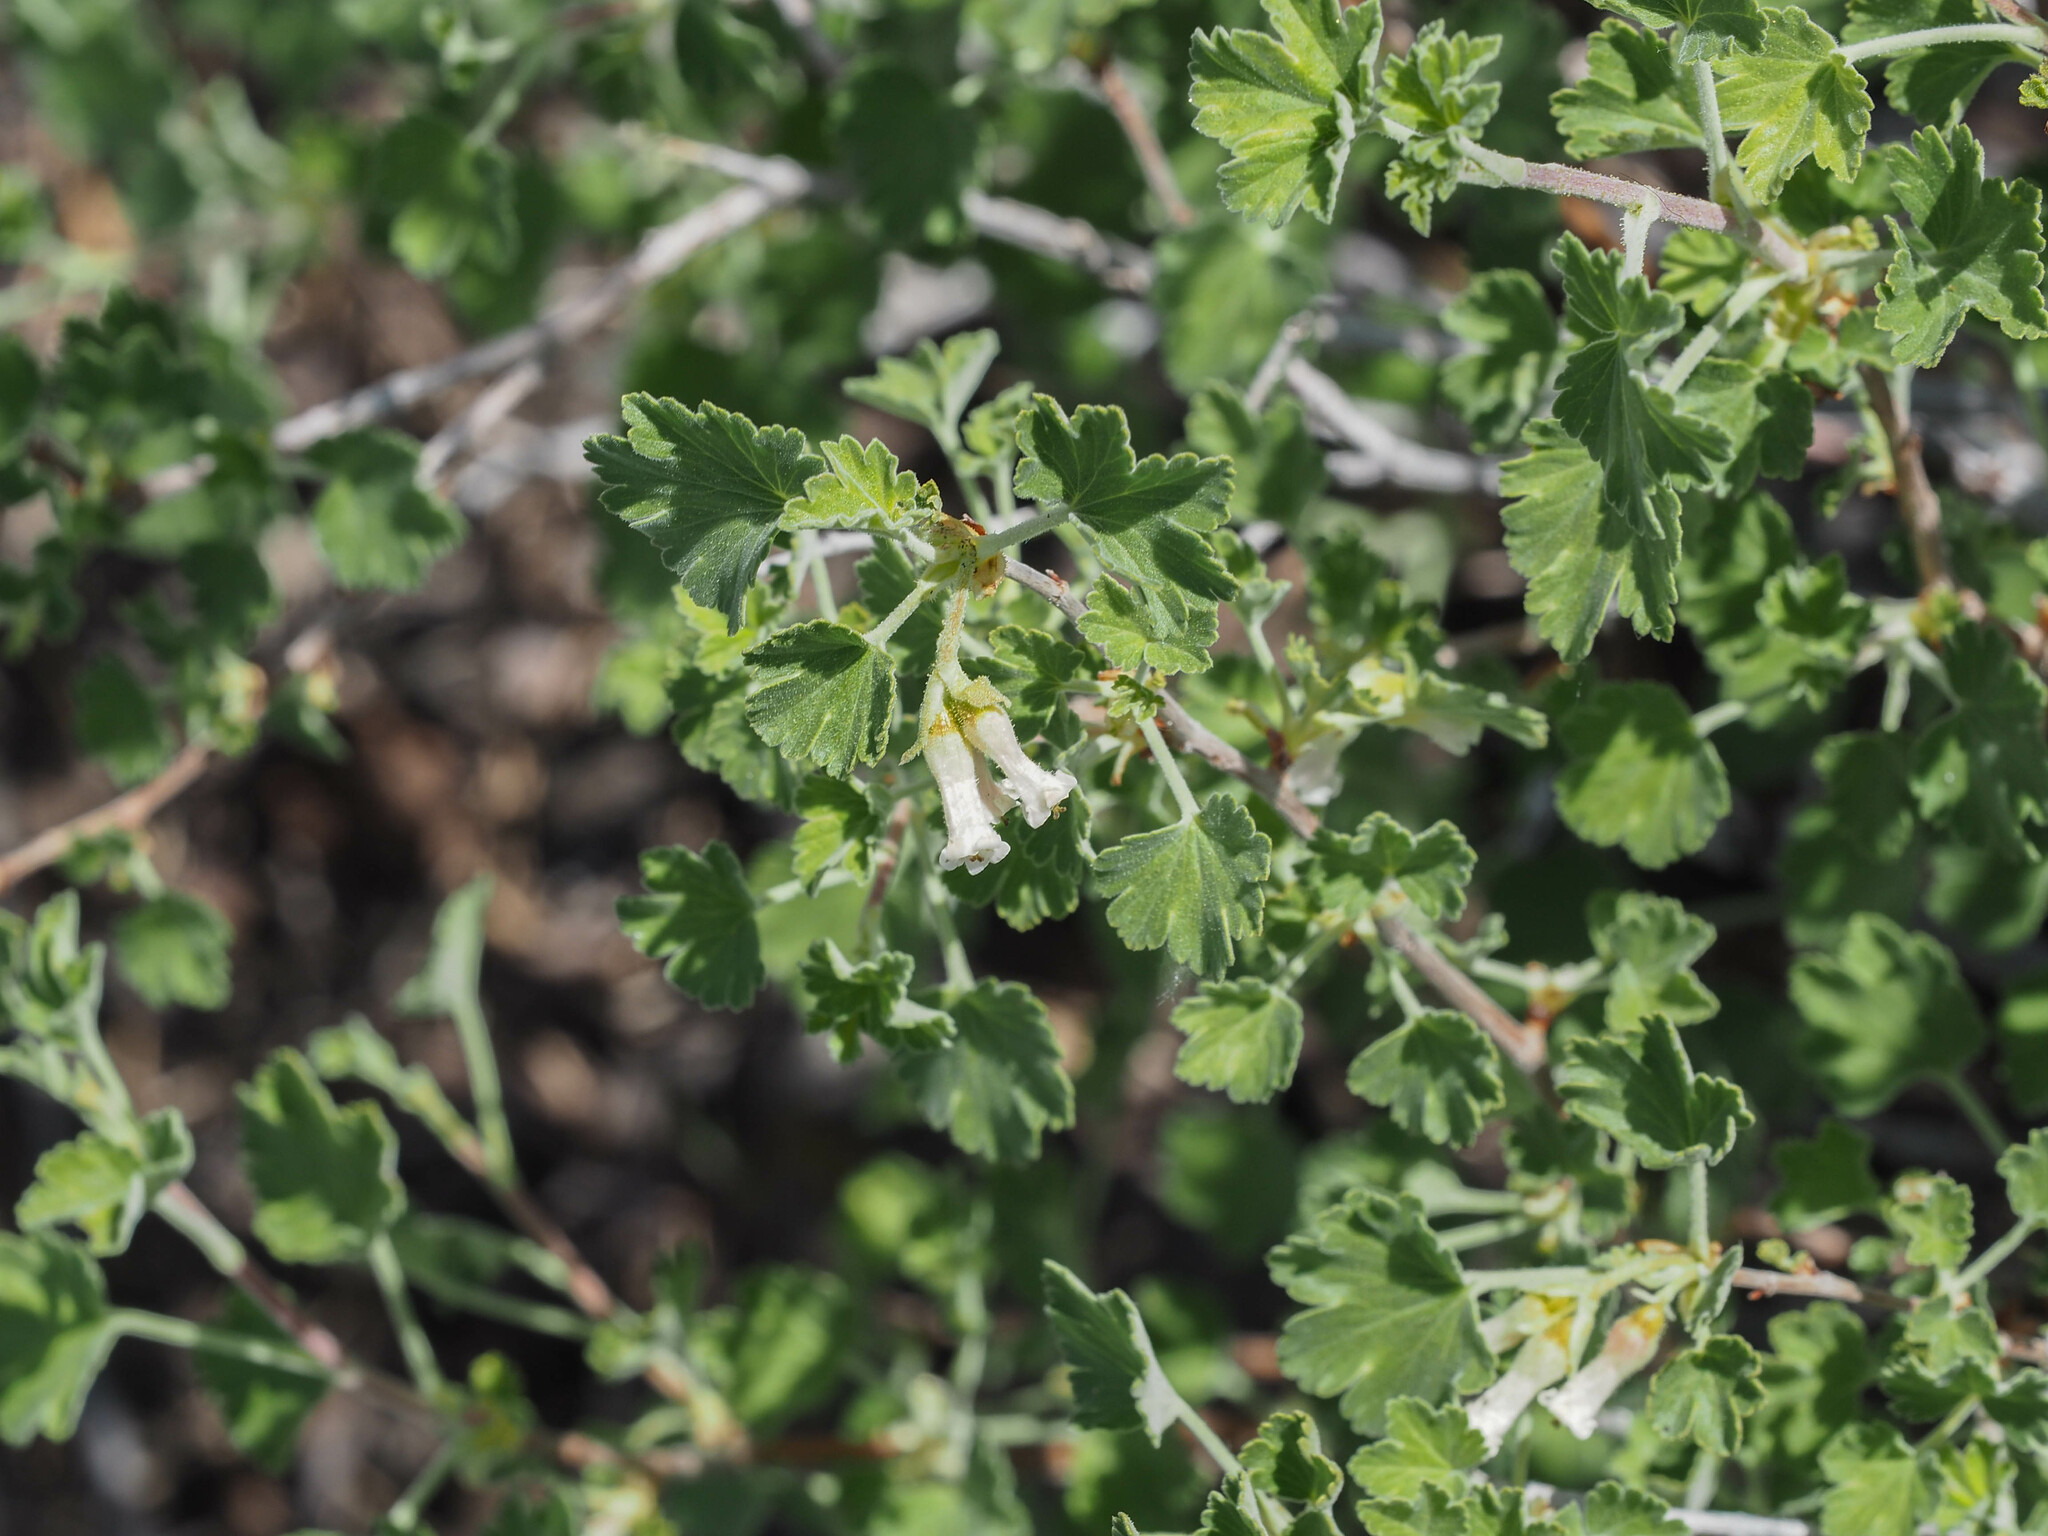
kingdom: Plantae
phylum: Tracheophyta
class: Magnoliopsida
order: Saxifragales
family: Grossulariaceae
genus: Ribes
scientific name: Ribes cereum
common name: Wax currant
